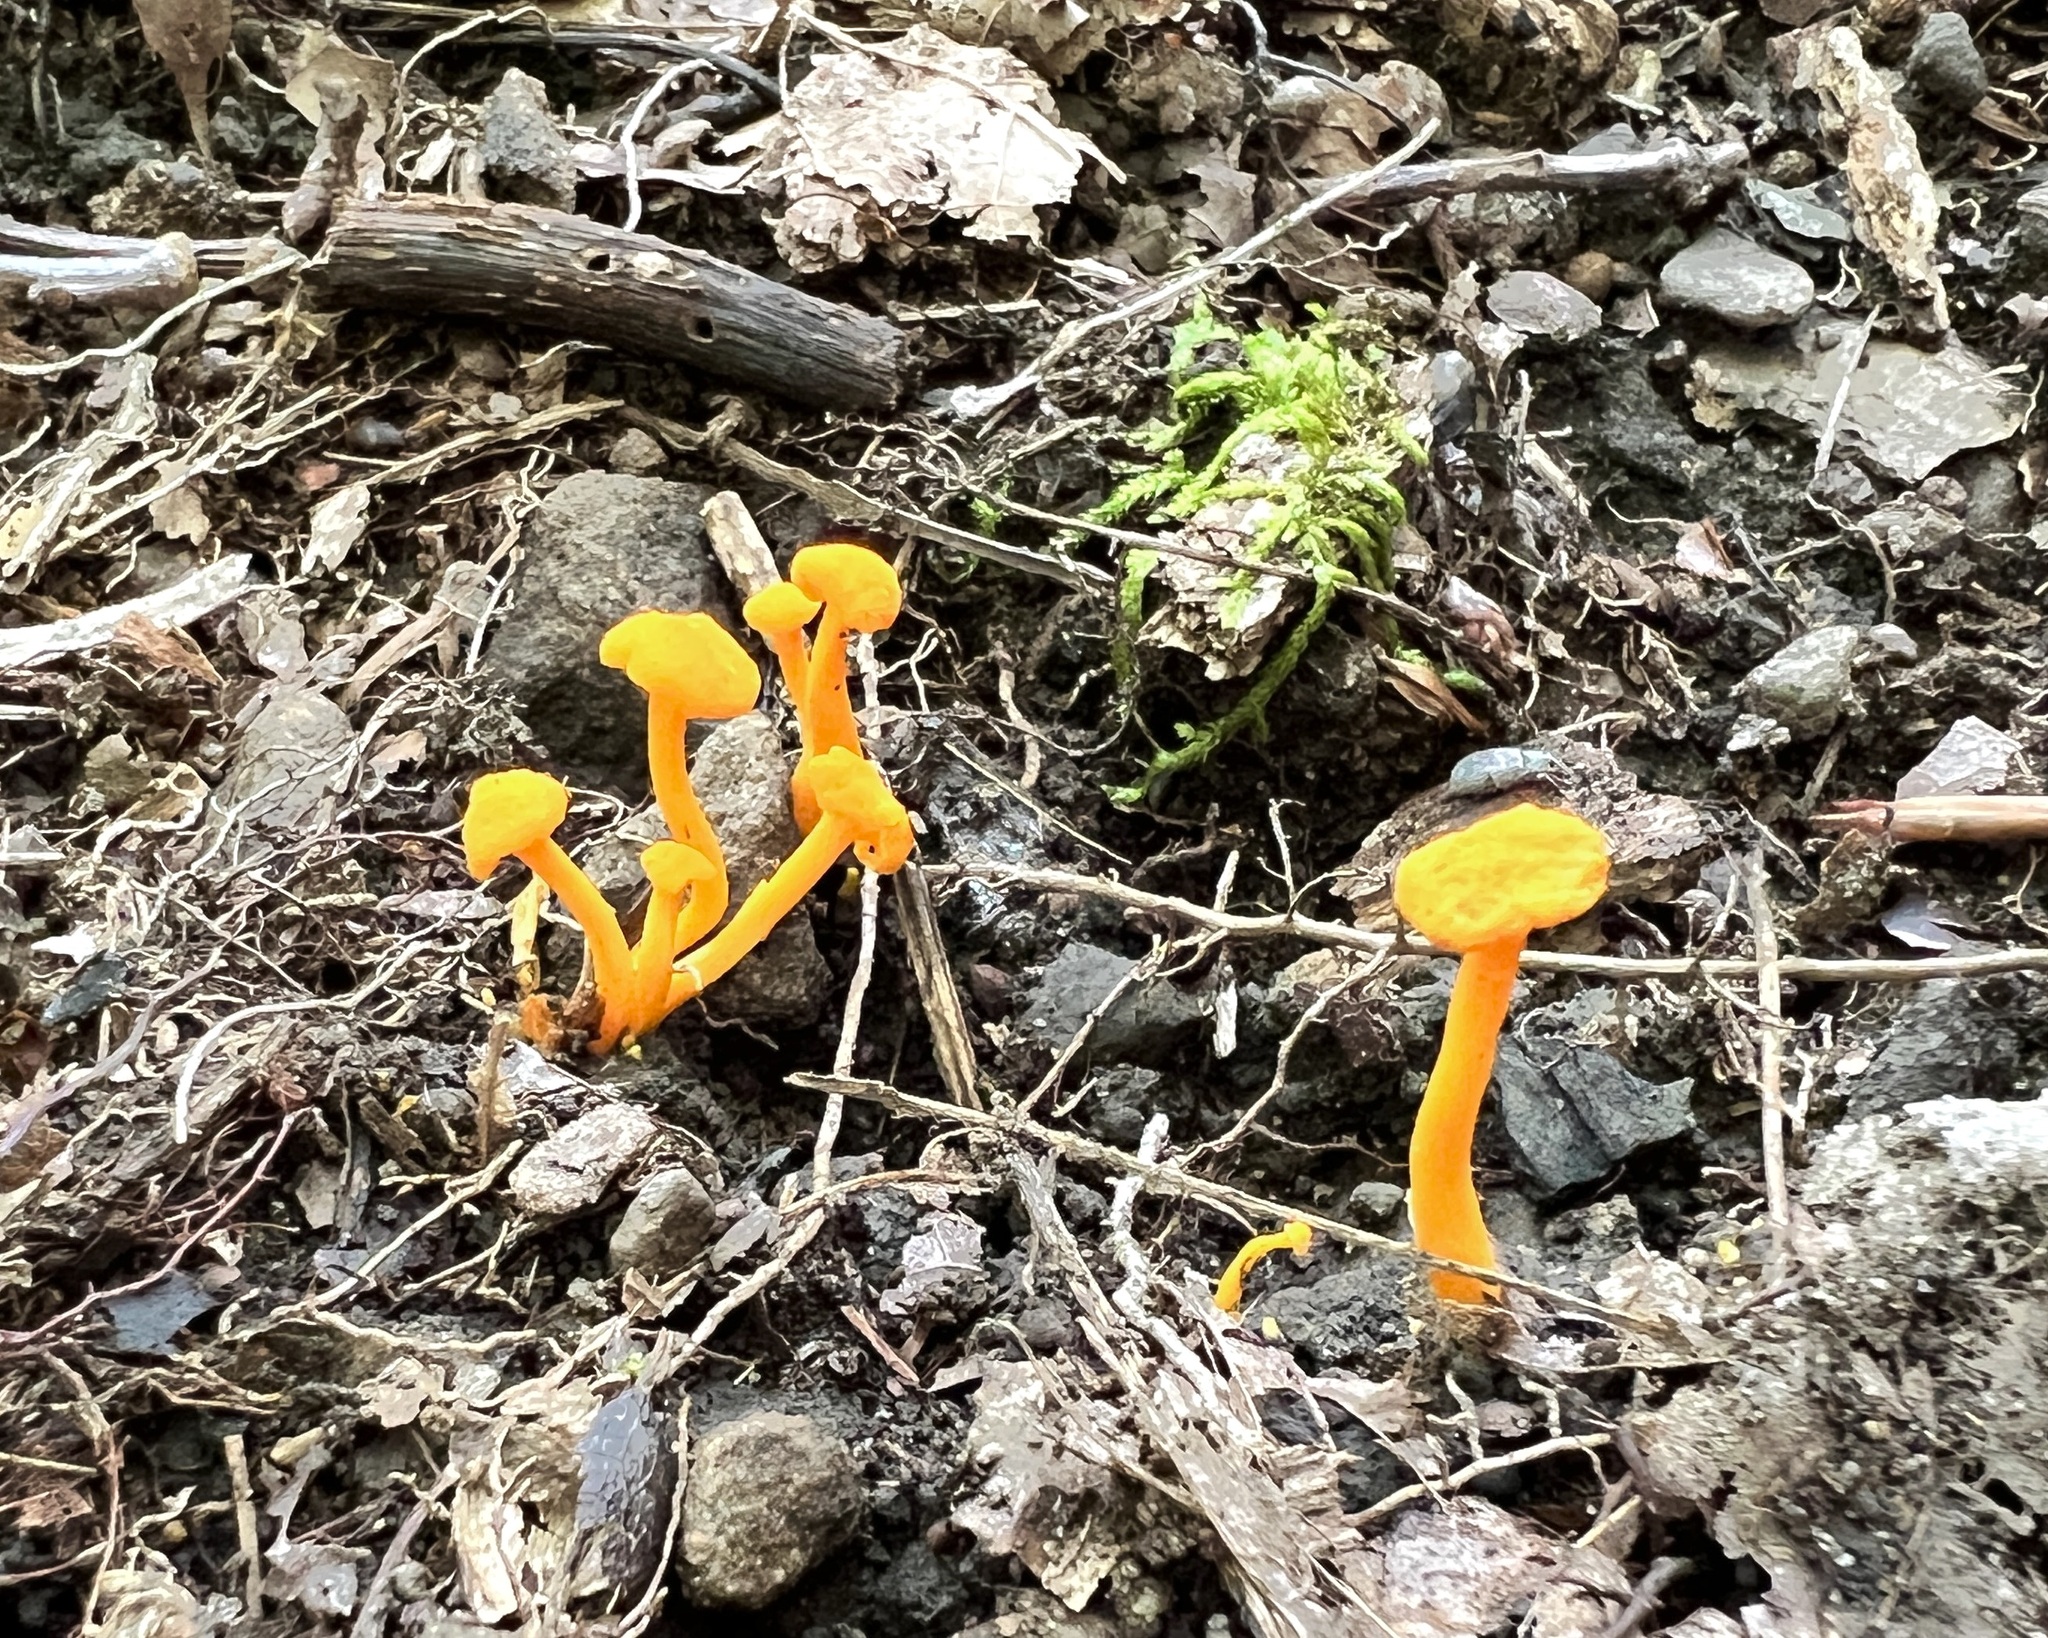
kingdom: Fungi
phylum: Basidiomycota
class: Agaricomycetes
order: Cantharellales
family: Hydnaceae
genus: Cantharellus
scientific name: Cantharellus minor
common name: Small chanterelle
